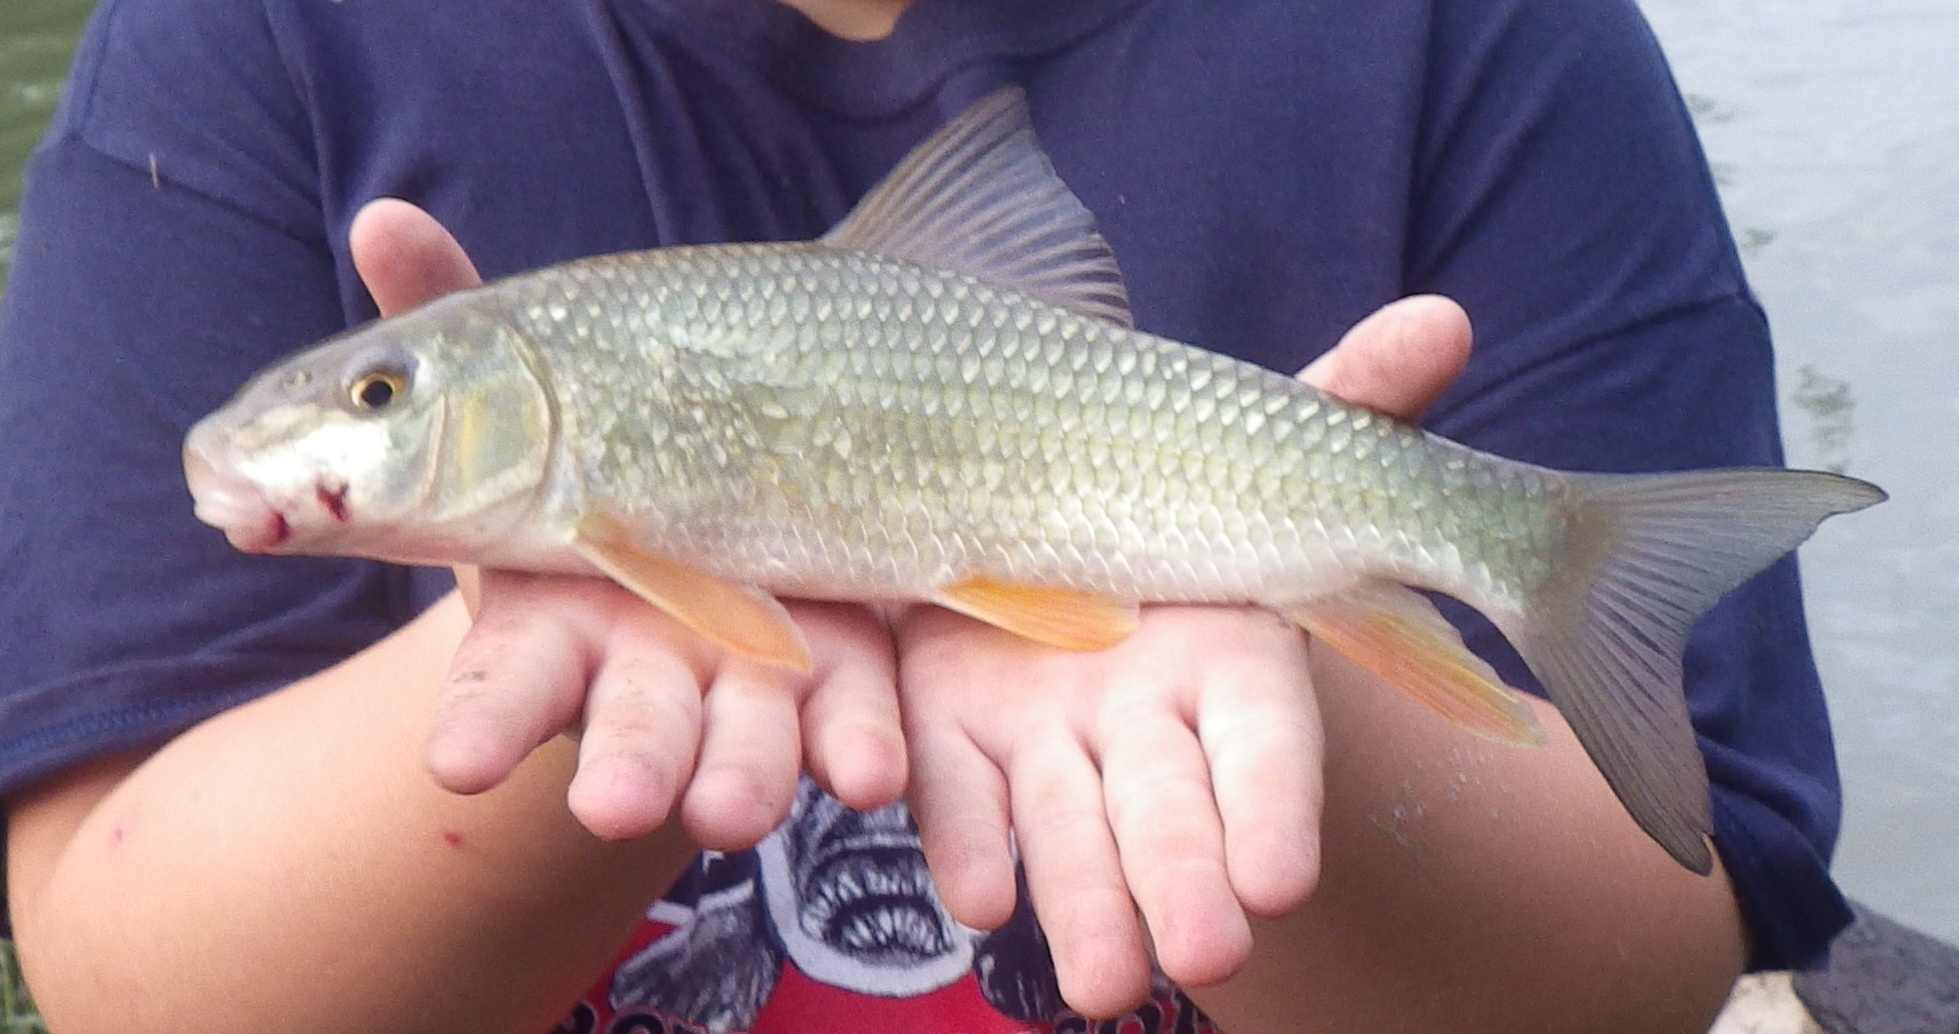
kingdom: Animalia
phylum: Chordata
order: Cypriniformes
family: Catostomidae
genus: Moxostoma
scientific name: Moxostoma erythrurum
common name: Golden redhorse
